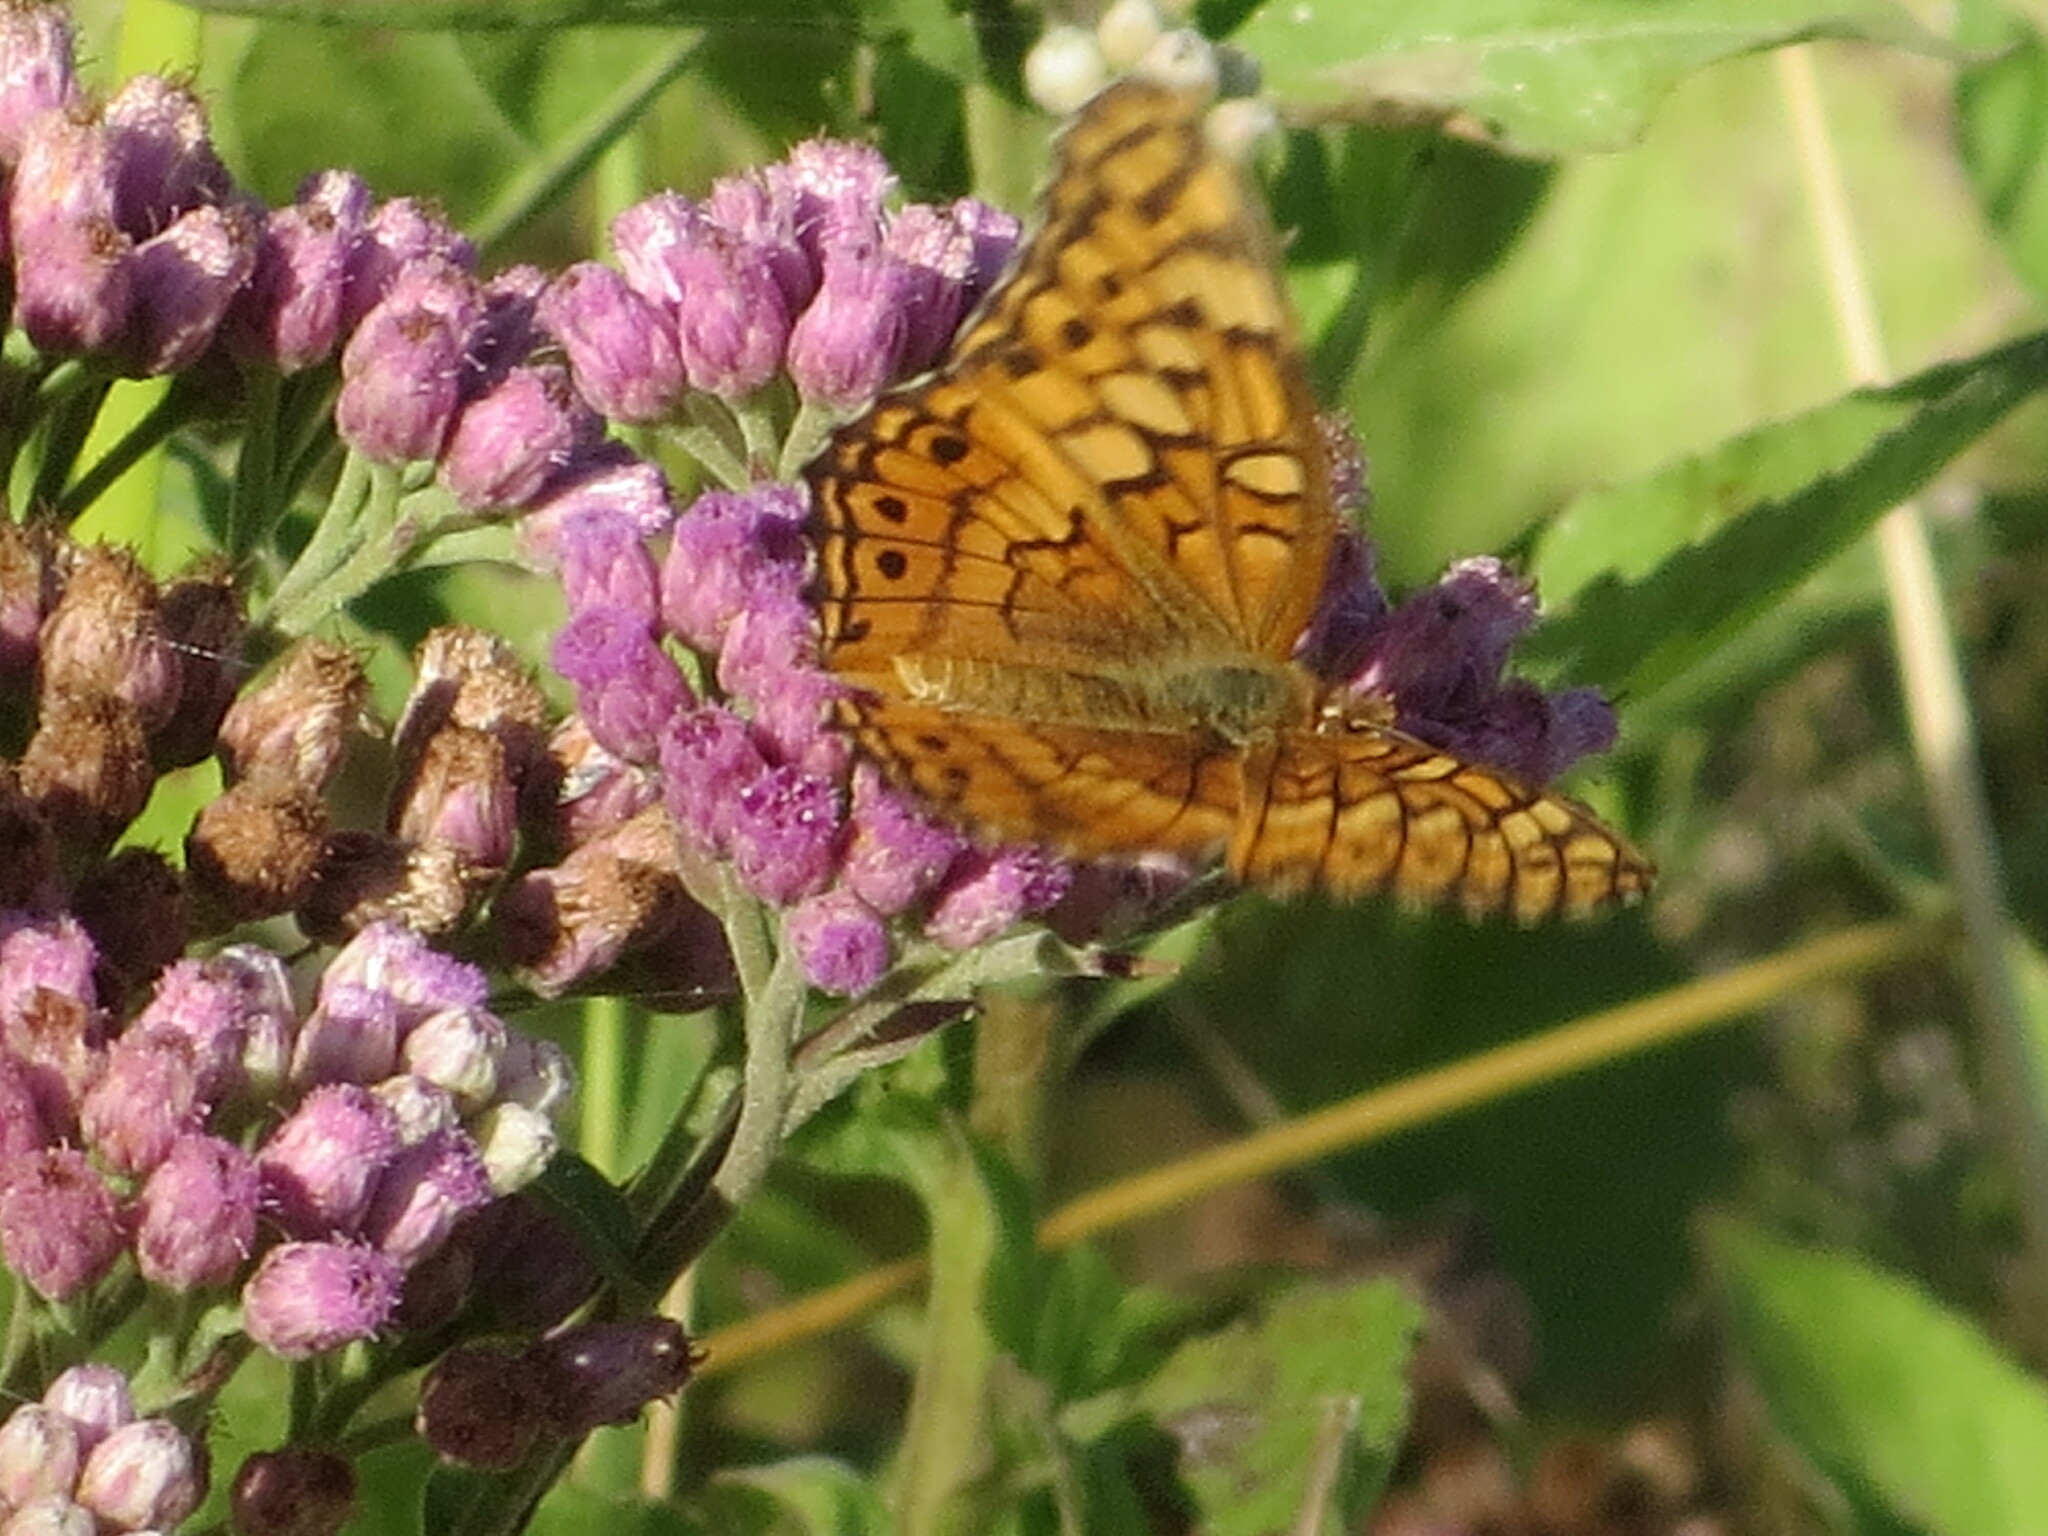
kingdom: Animalia
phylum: Arthropoda
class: Insecta
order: Lepidoptera
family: Nymphalidae
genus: Euptoieta
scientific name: Euptoieta claudia
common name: Variegated fritillary
